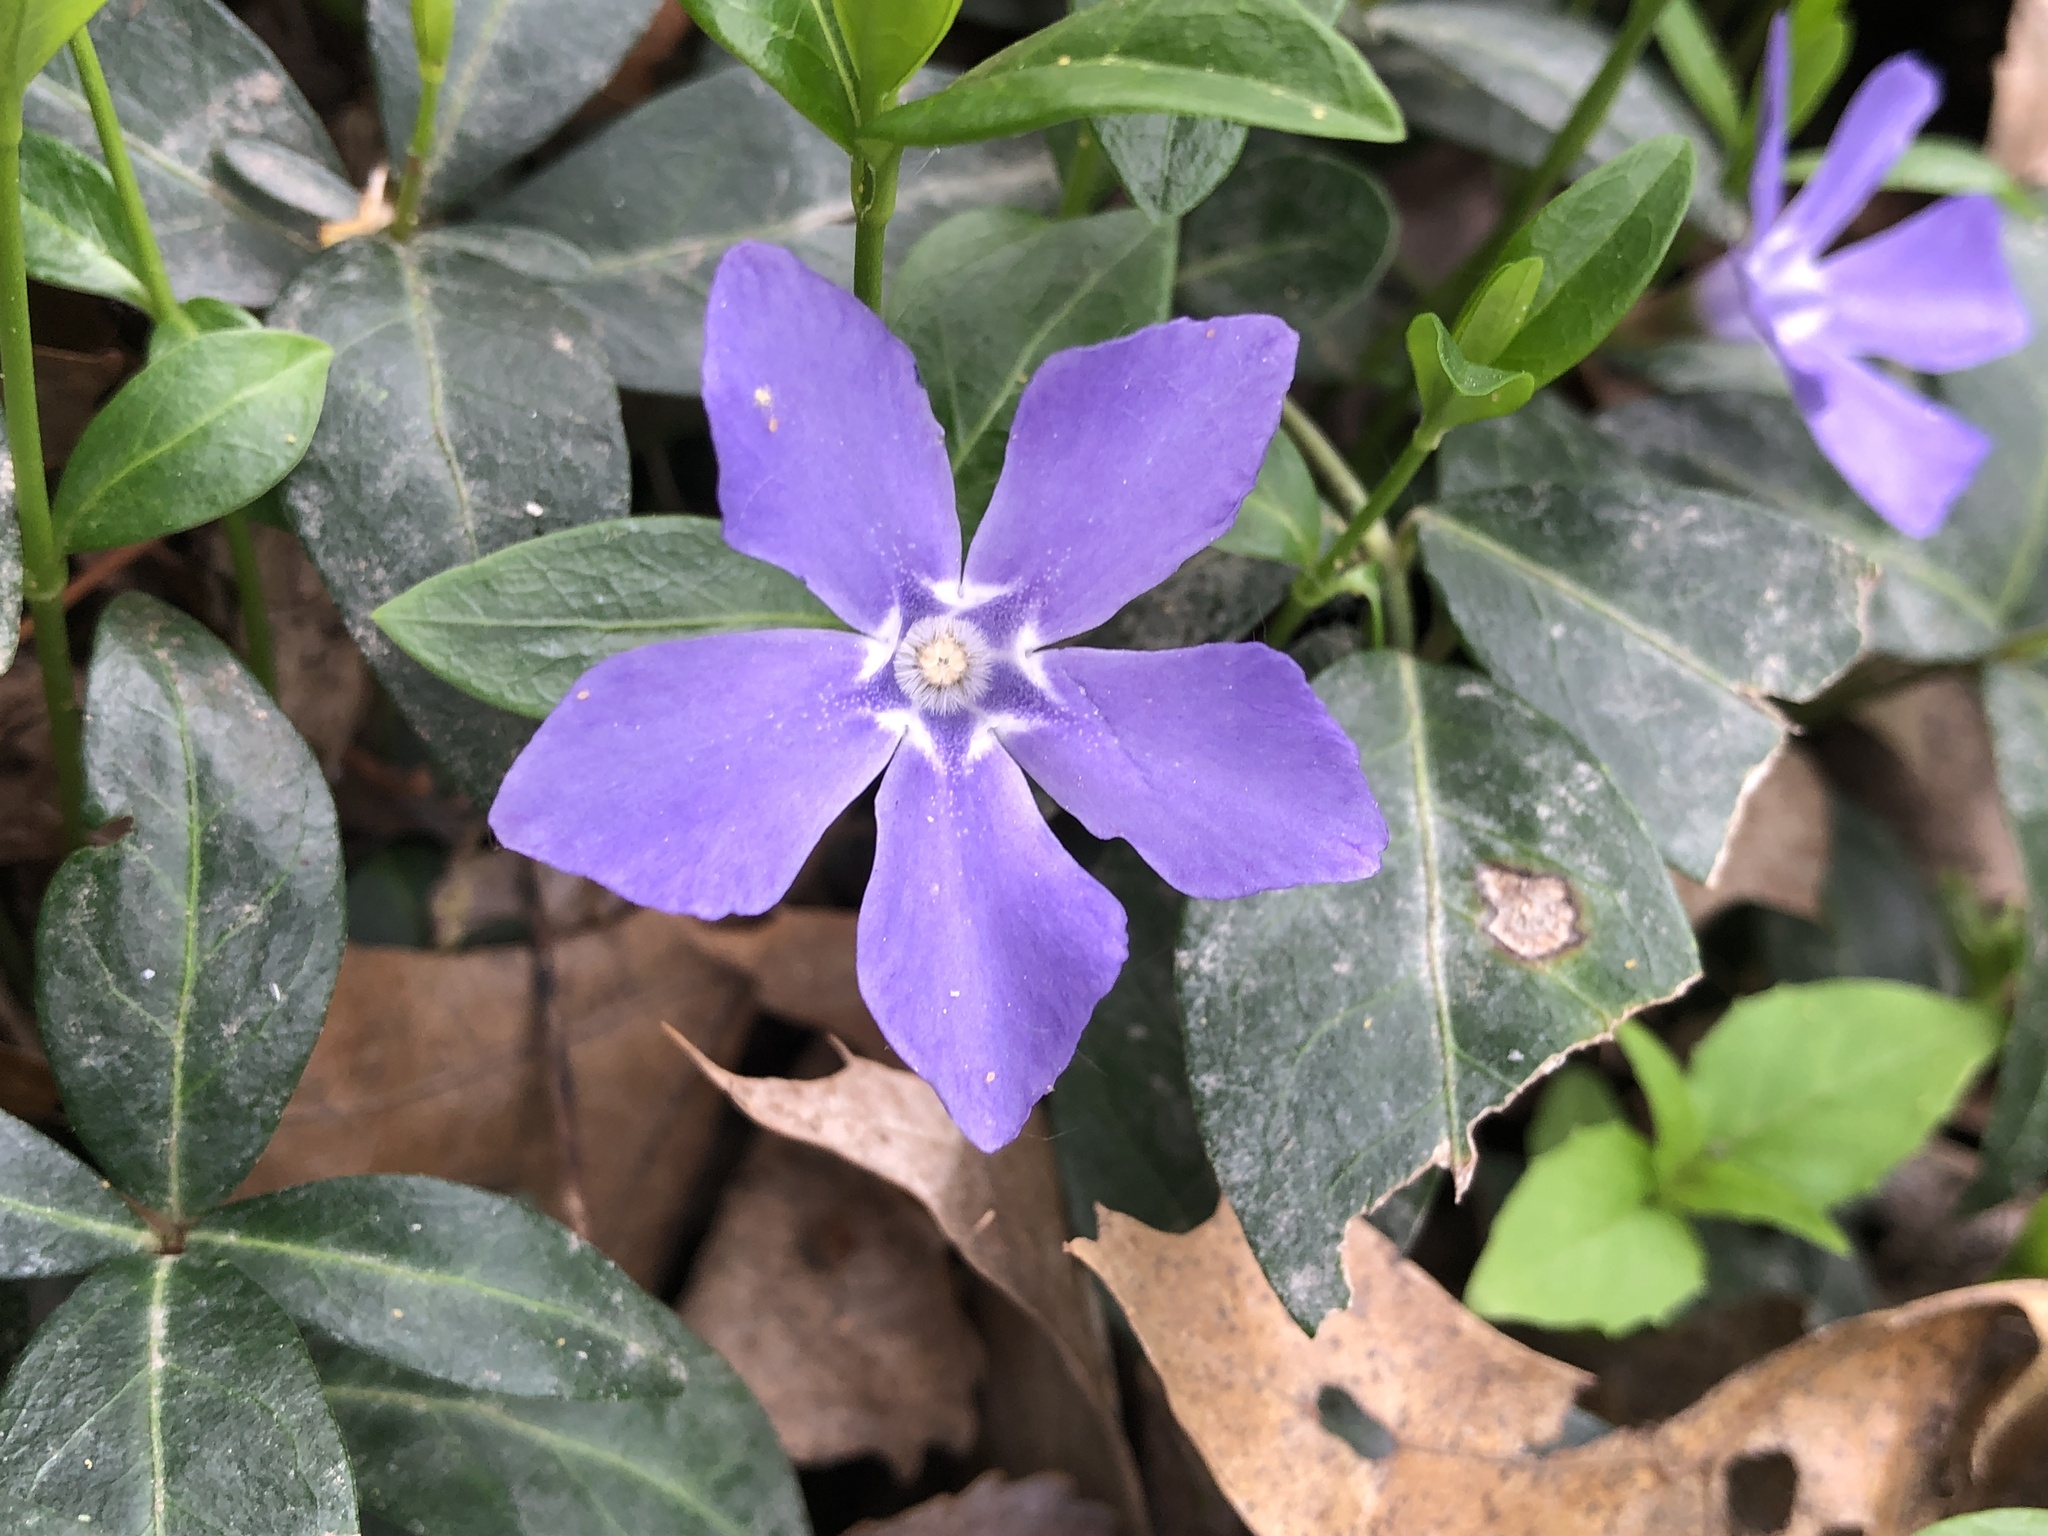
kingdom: Plantae
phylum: Tracheophyta
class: Magnoliopsida
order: Gentianales
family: Apocynaceae
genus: Vinca
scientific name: Vinca minor
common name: Lesser periwinkle
